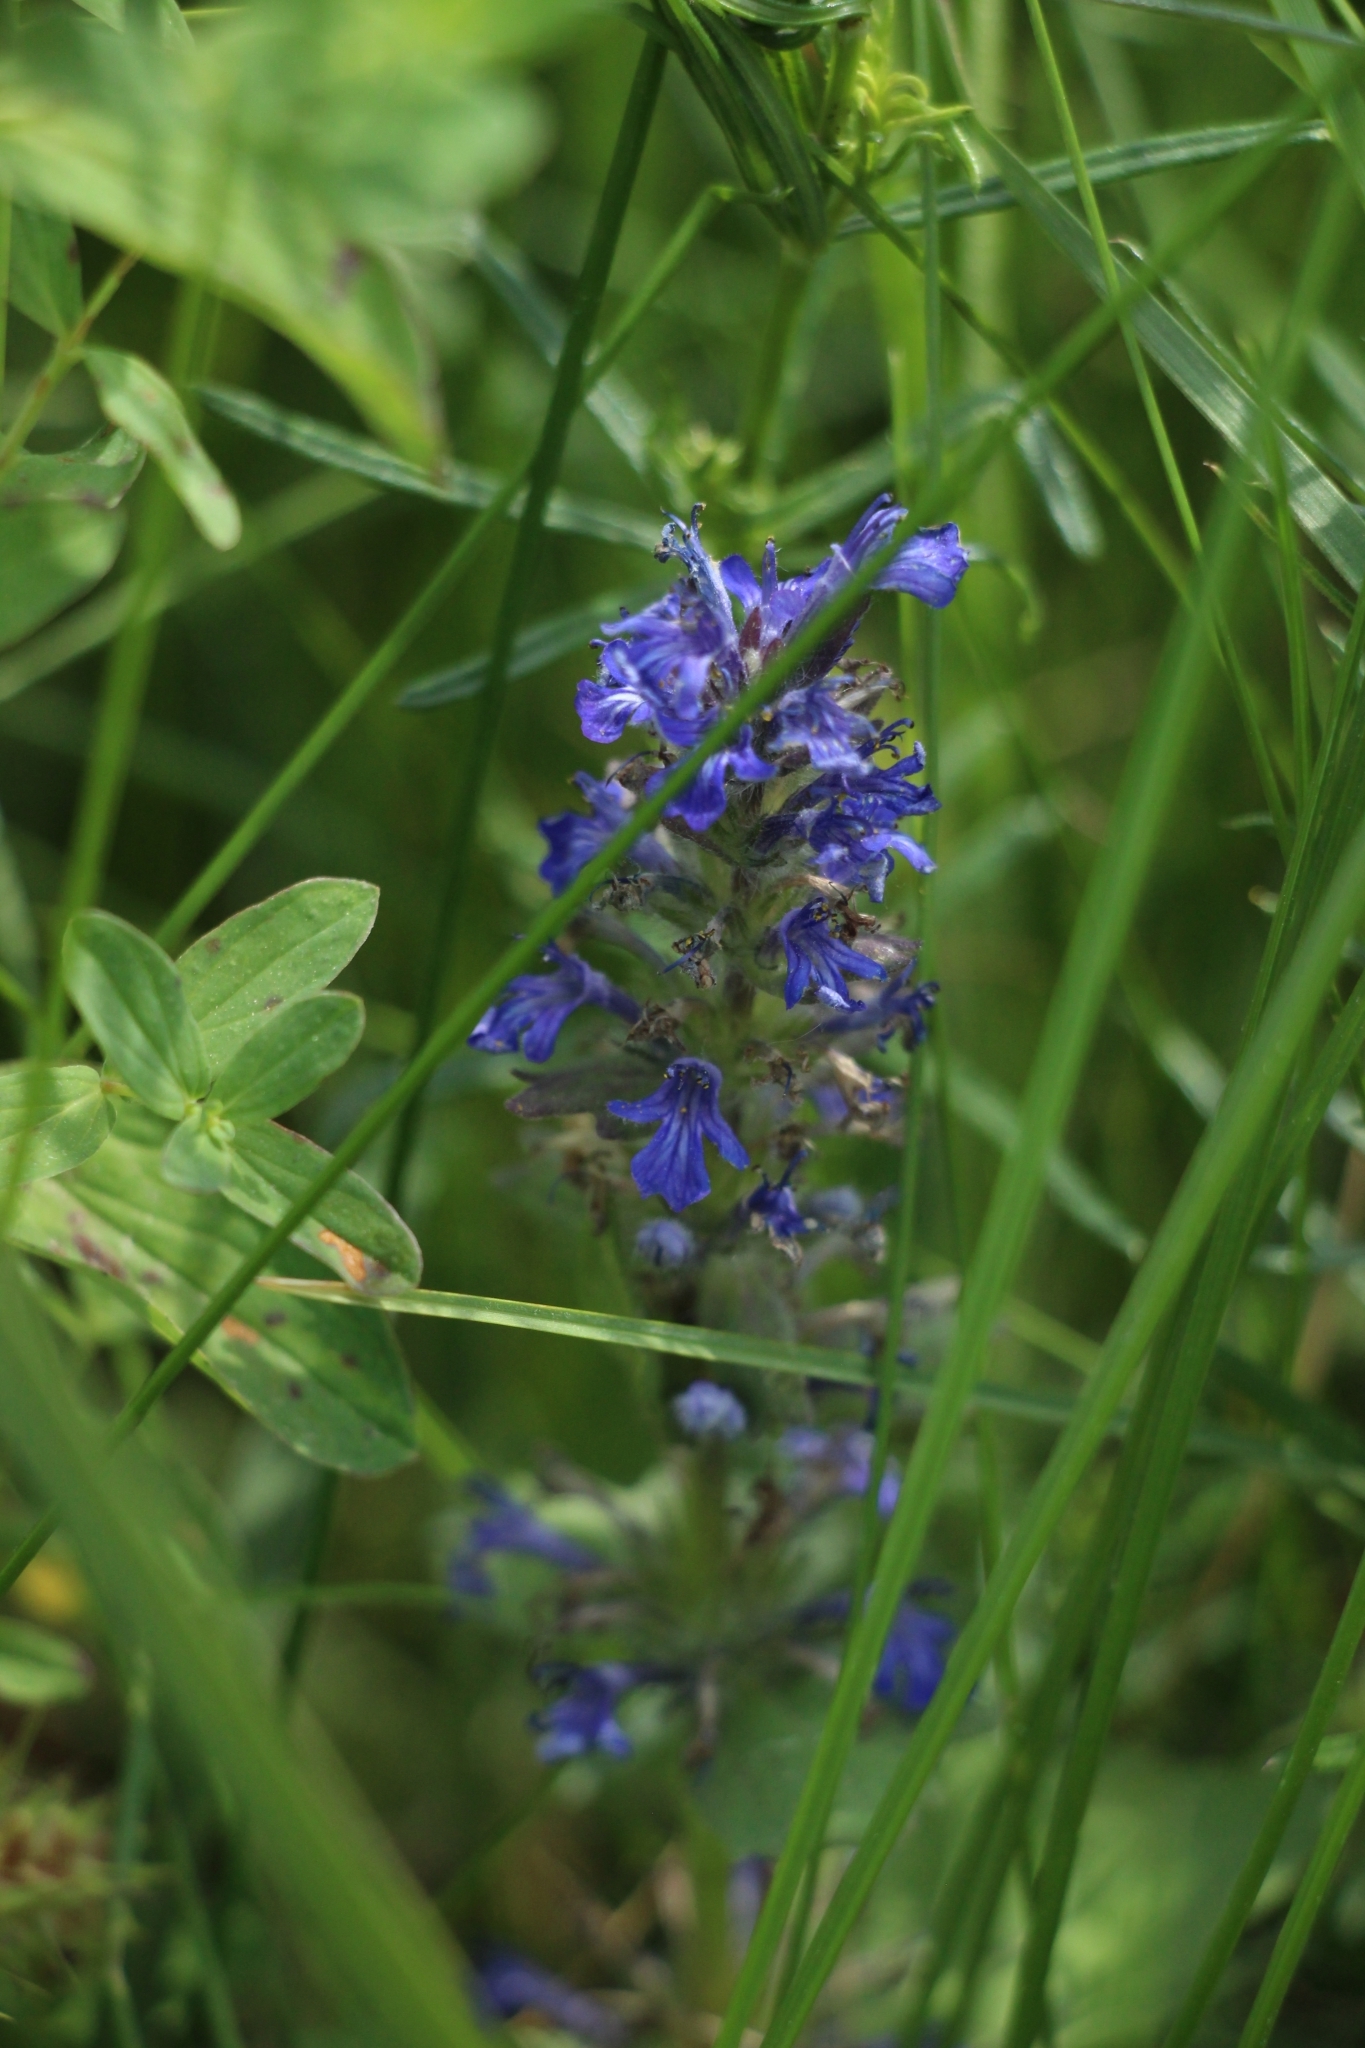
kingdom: Plantae
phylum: Tracheophyta
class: Magnoliopsida
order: Lamiales
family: Lamiaceae
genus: Ajuga
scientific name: Ajuga genevensis
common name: Blue bugle
